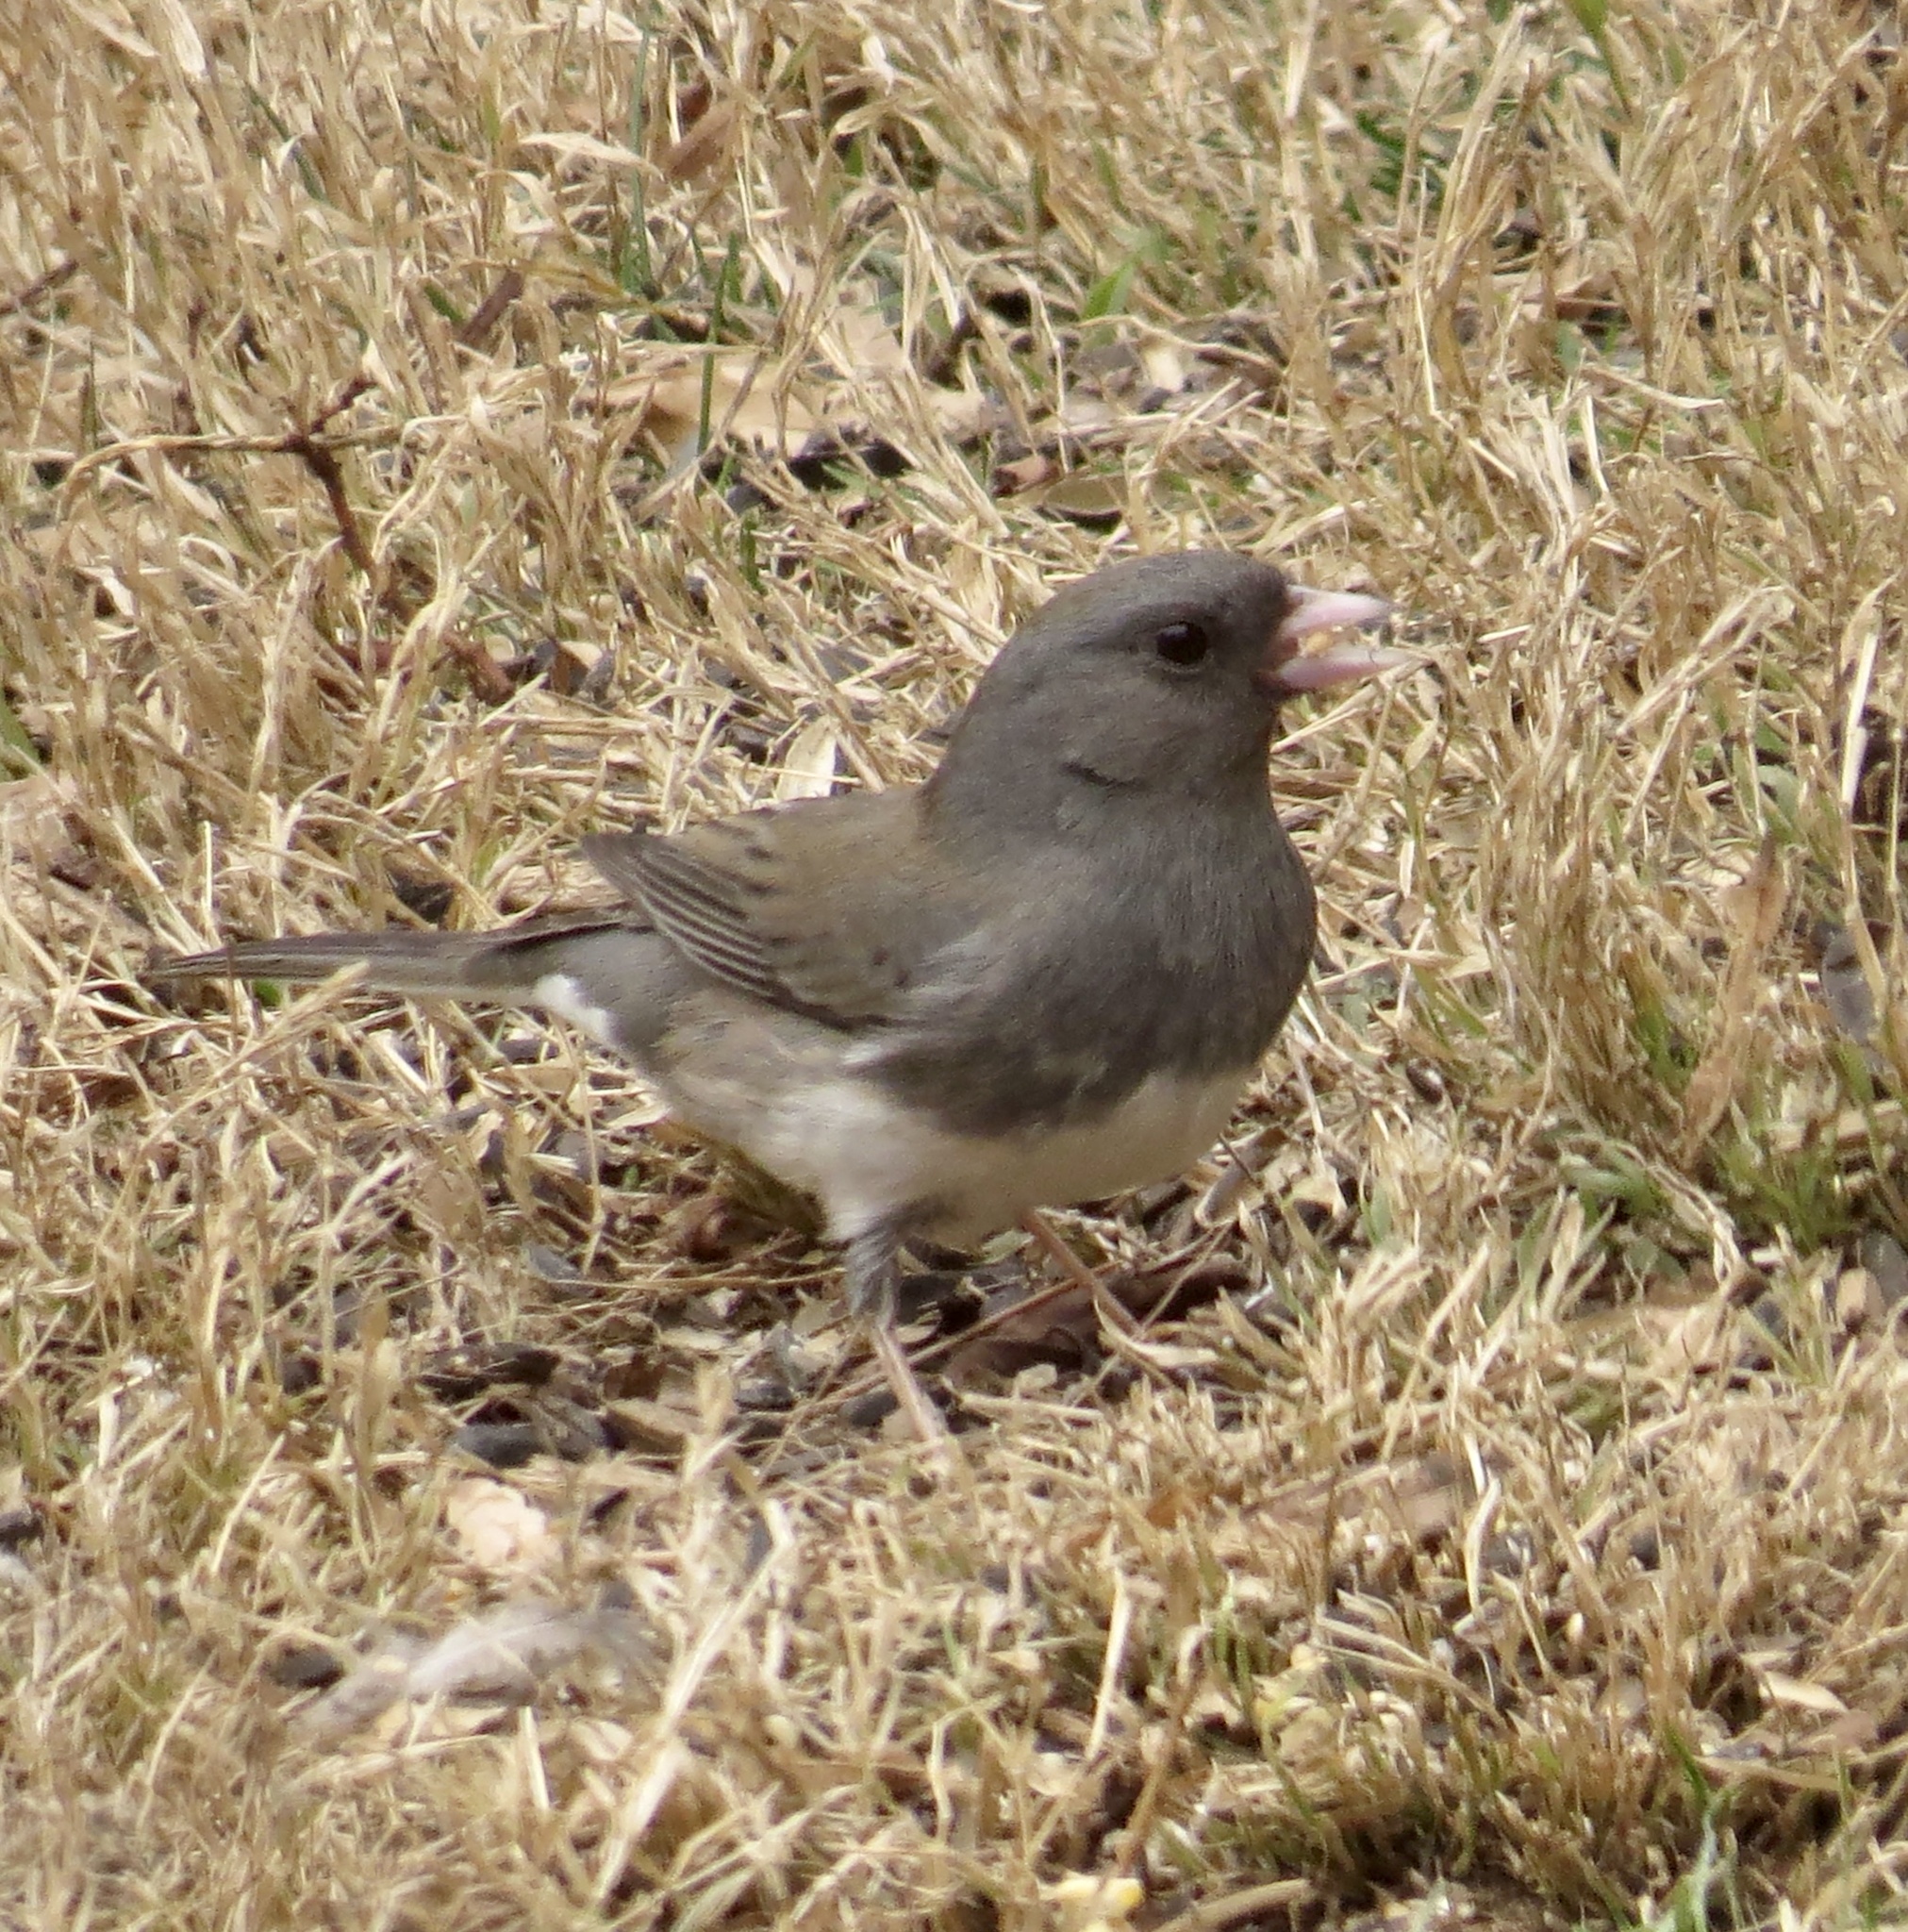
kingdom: Animalia
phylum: Chordata
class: Aves
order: Passeriformes
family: Passerellidae
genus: Junco
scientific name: Junco hyemalis
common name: Dark-eyed junco
